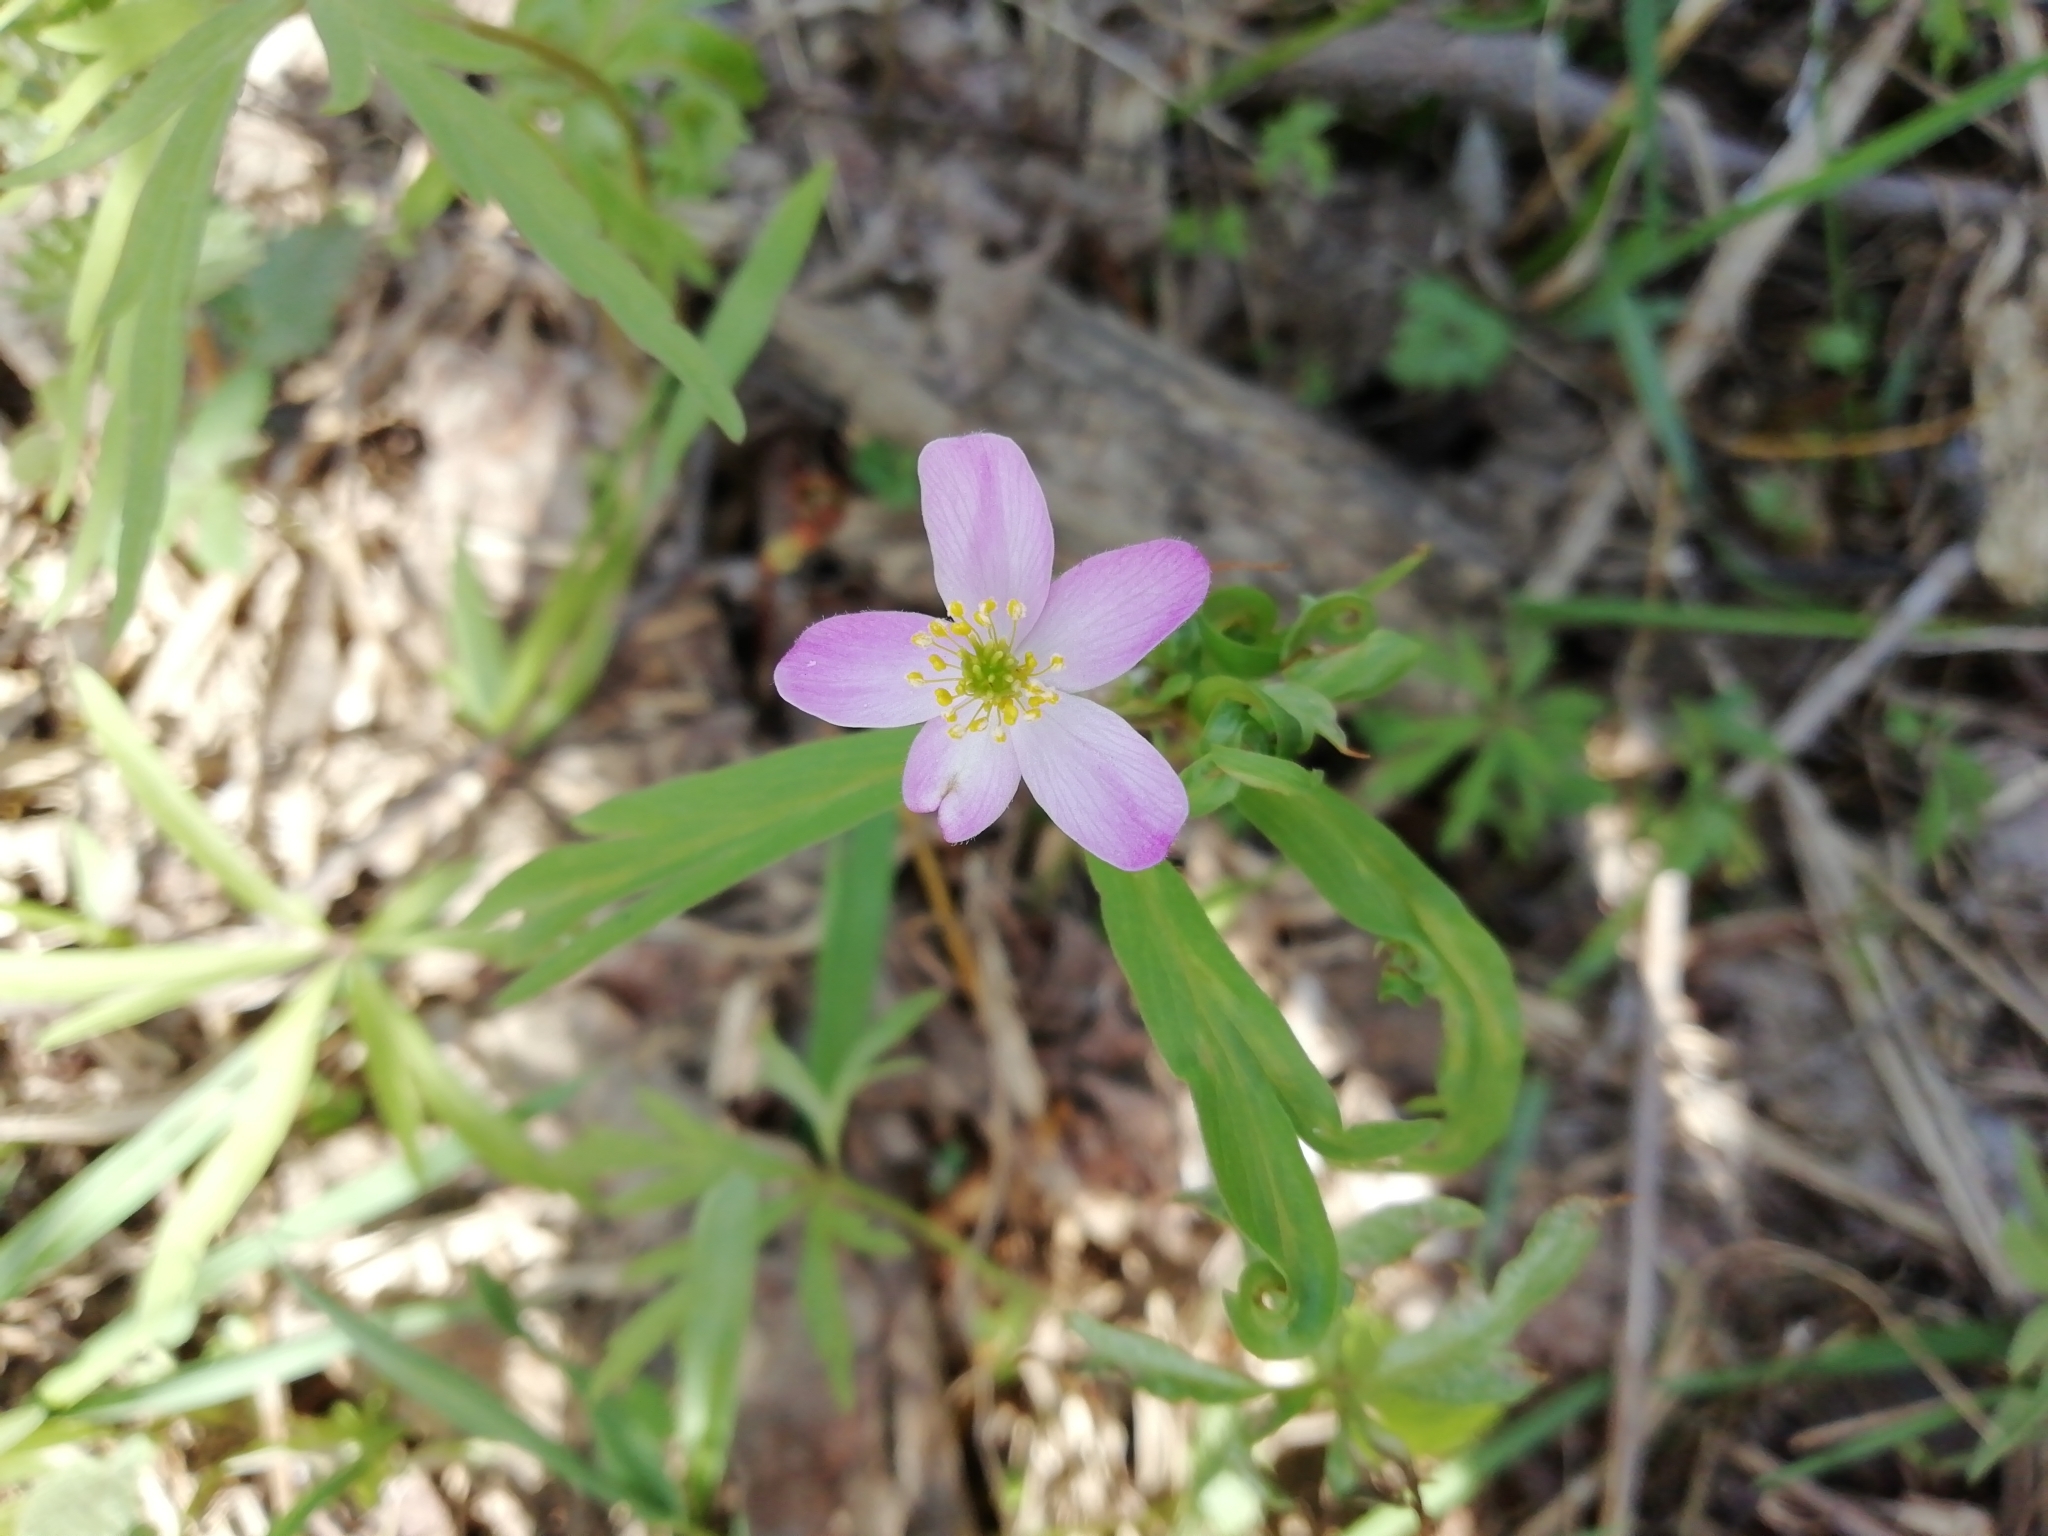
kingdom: Plantae
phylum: Tracheophyta
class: Magnoliopsida
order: Ranunculales
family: Ranunculaceae
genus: Anemone
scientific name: Anemone caerulea
